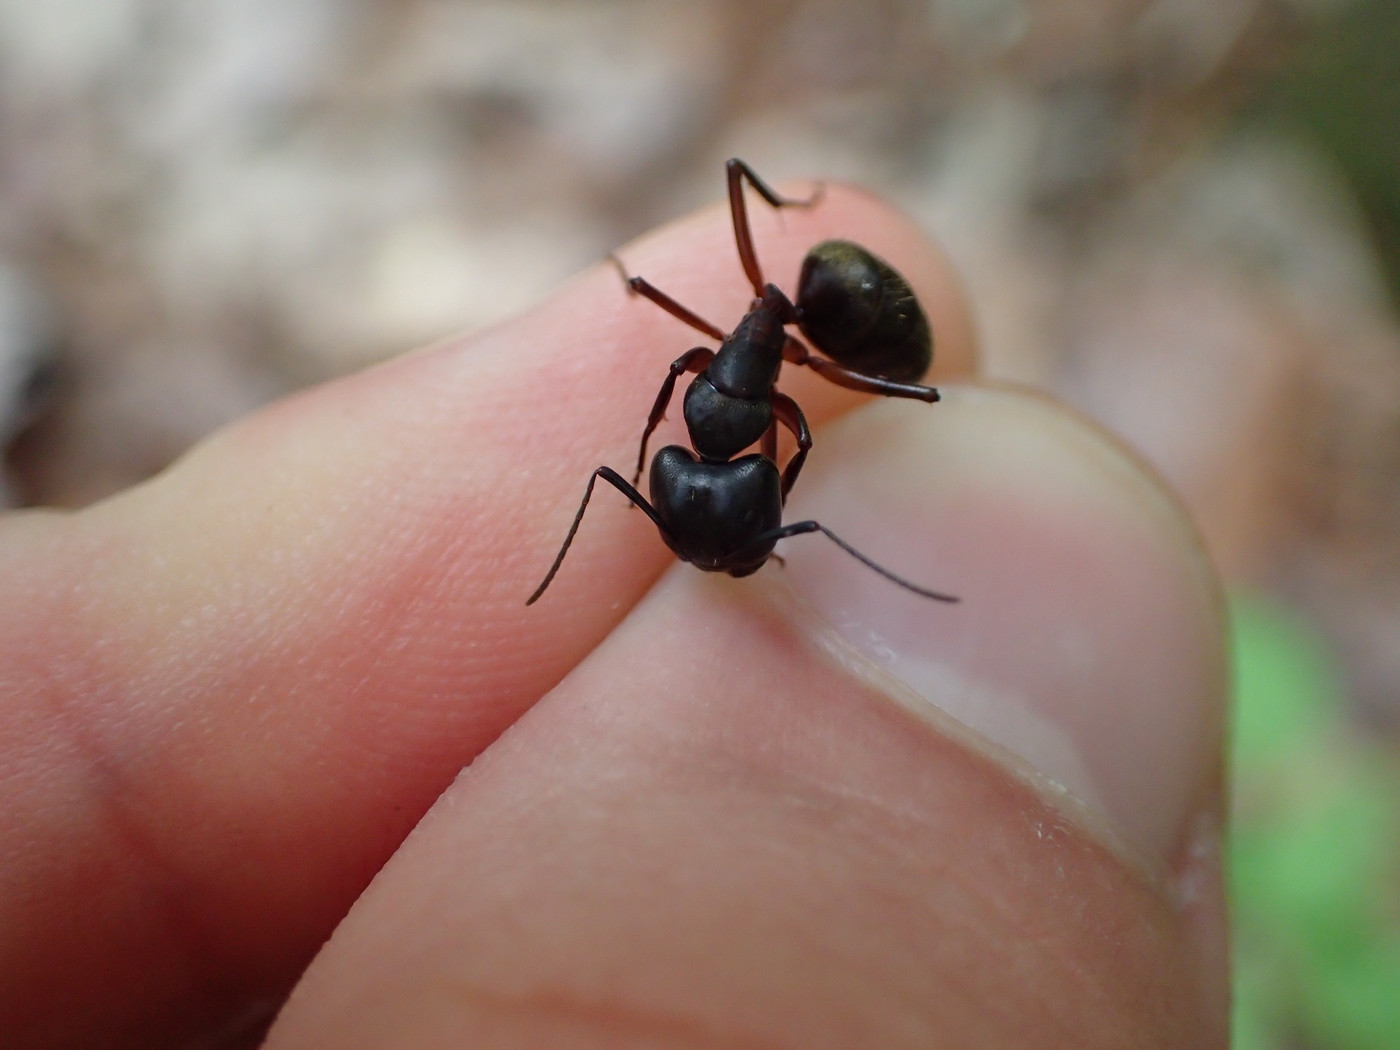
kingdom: Animalia
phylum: Arthropoda
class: Insecta
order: Hymenoptera
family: Formicidae
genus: Camponotus
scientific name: Camponotus pennsylvanicus
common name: Black carpenter ant
